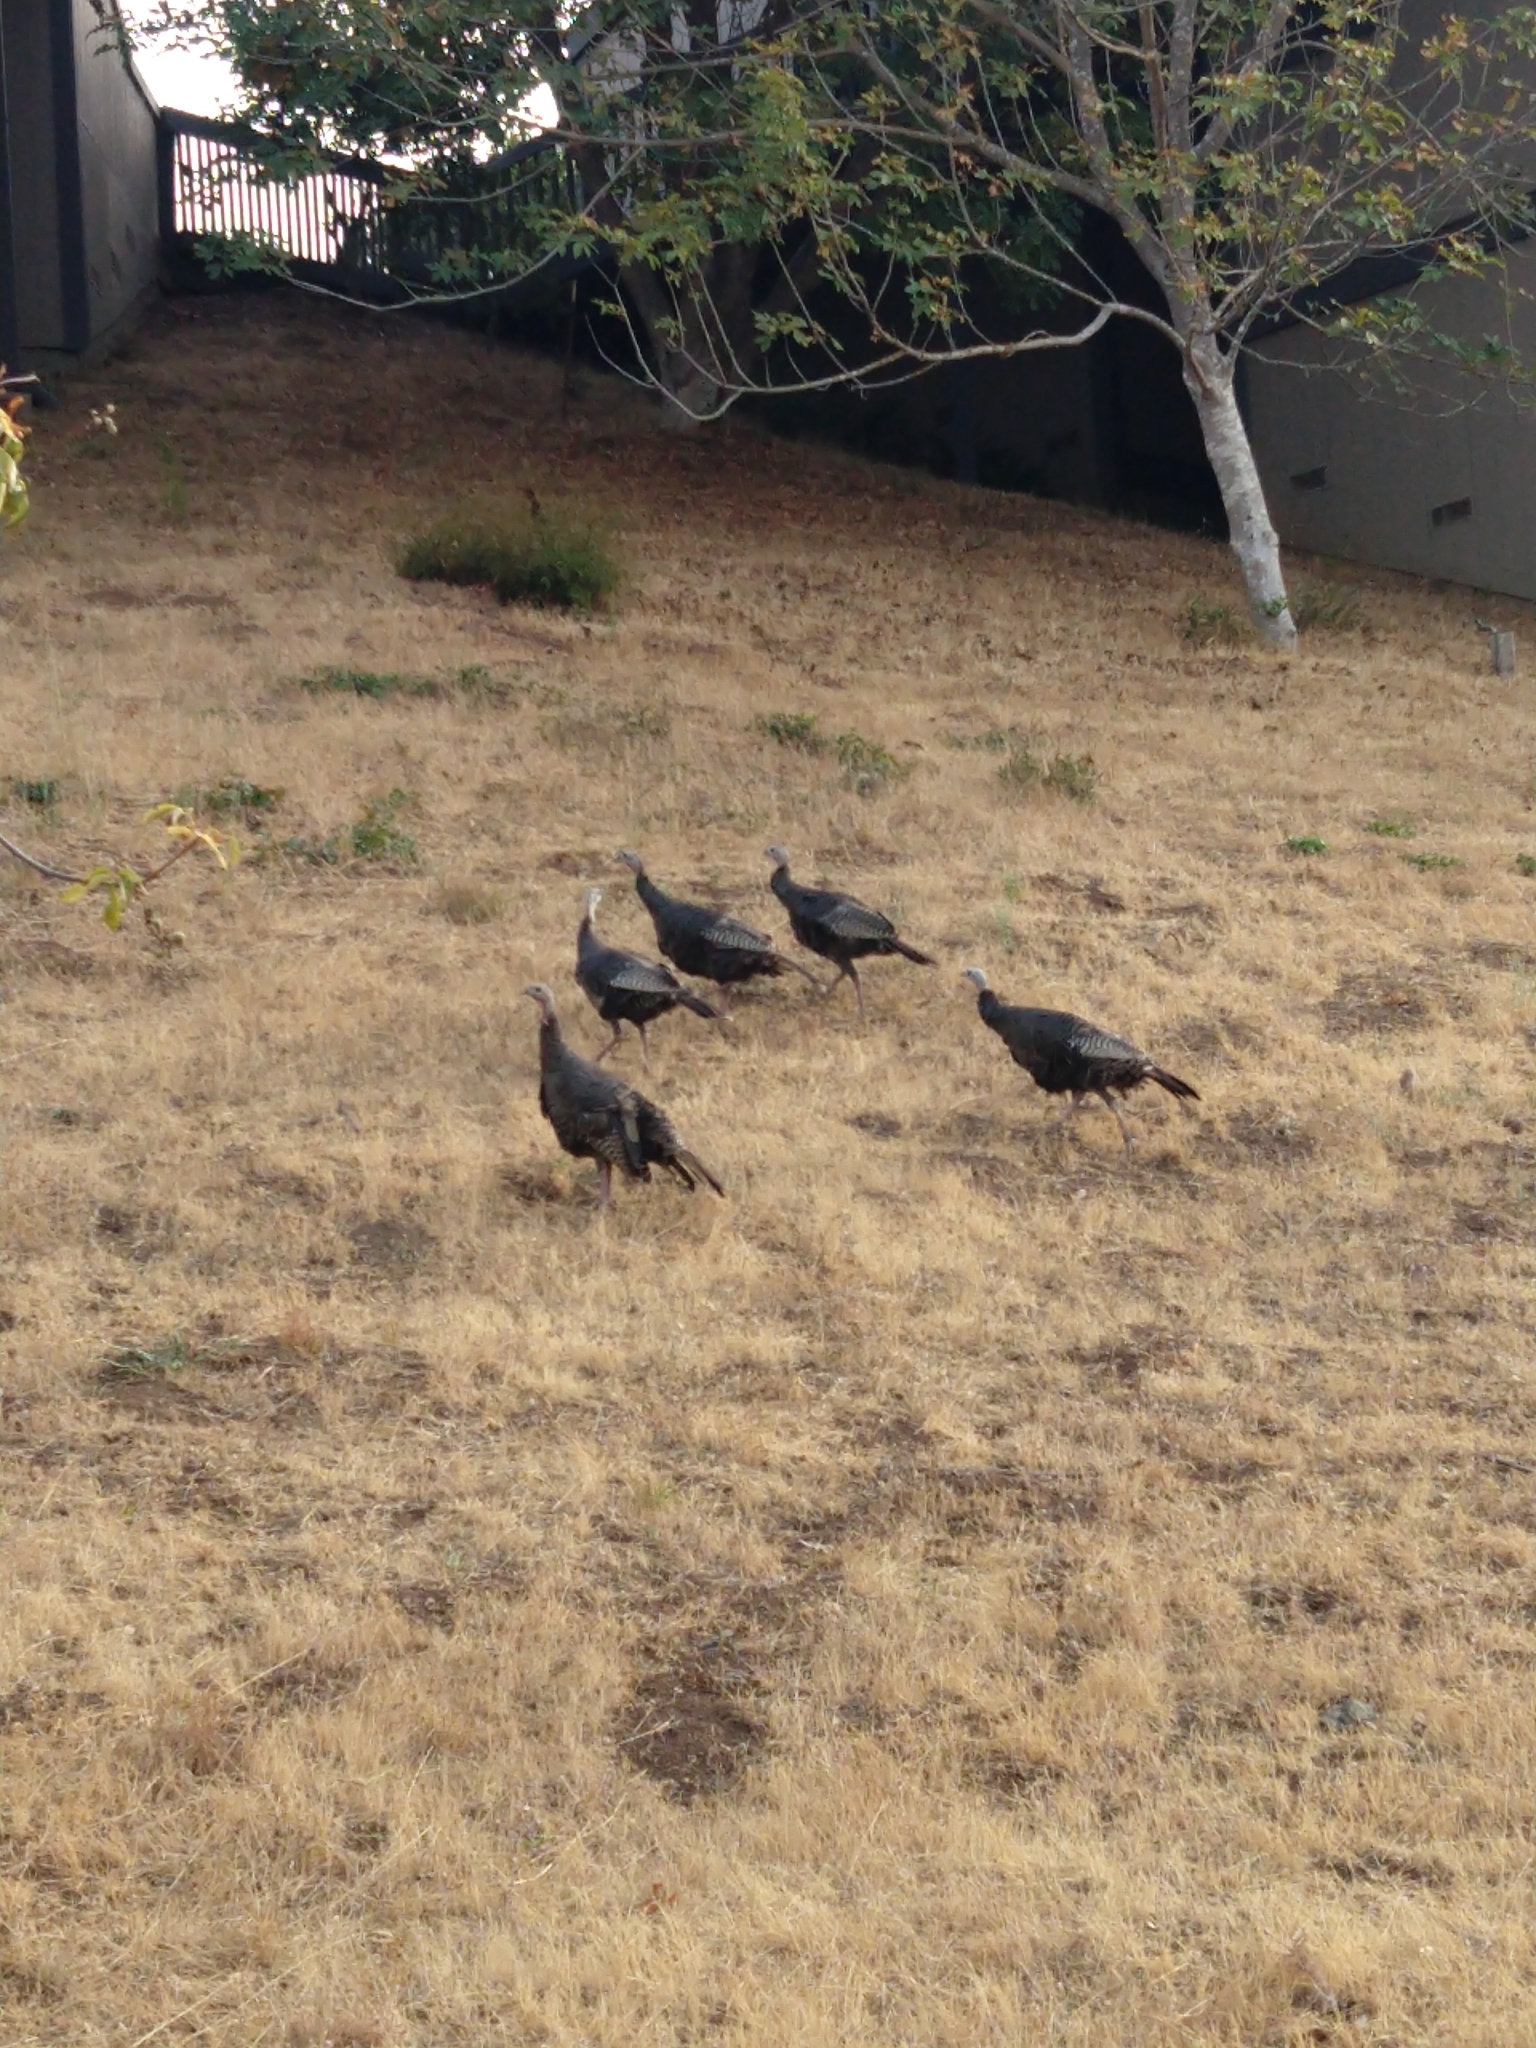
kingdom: Animalia
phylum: Chordata
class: Aves
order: Galliformes
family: Phasianidae
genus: Meleagris
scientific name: Meleagris gallopavo
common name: Wild turkey
